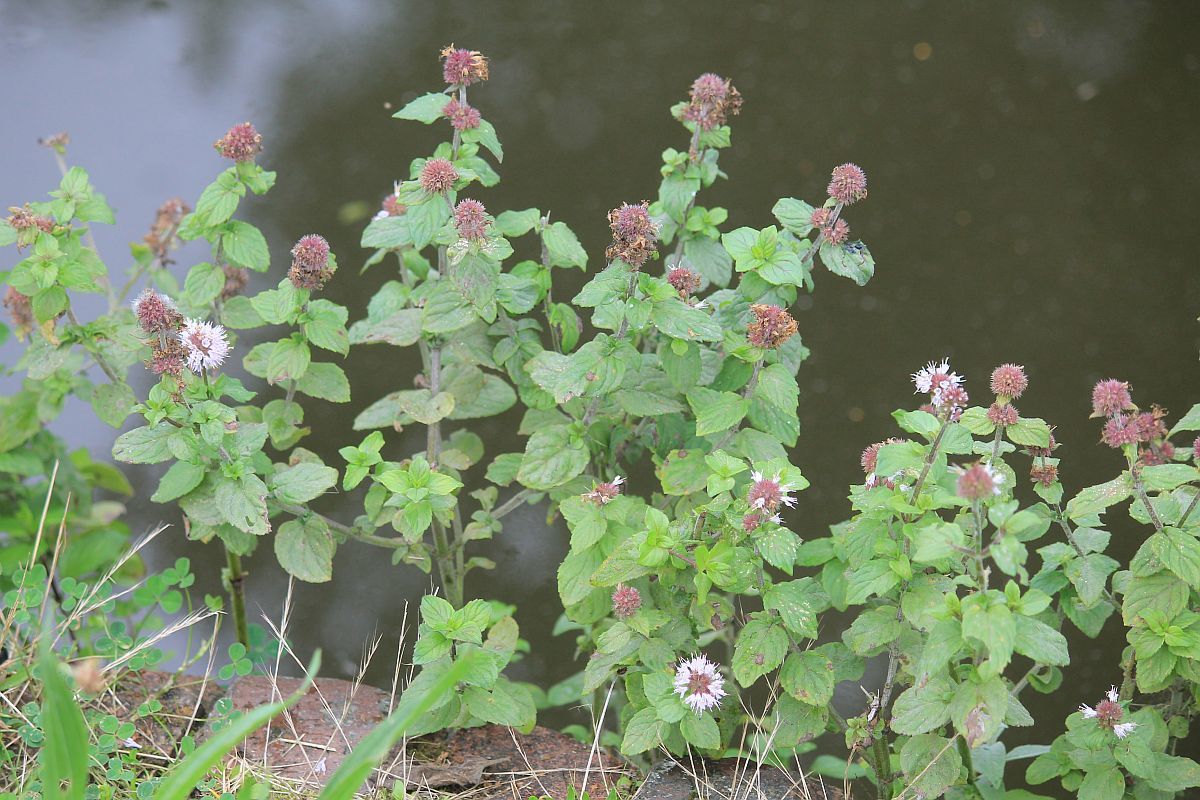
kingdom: Plantae
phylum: Tracheophyta
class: Magnoliopsida
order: Lamiales
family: Lamiaceae
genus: Mentha
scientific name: Mentha aquatica
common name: Water mint
